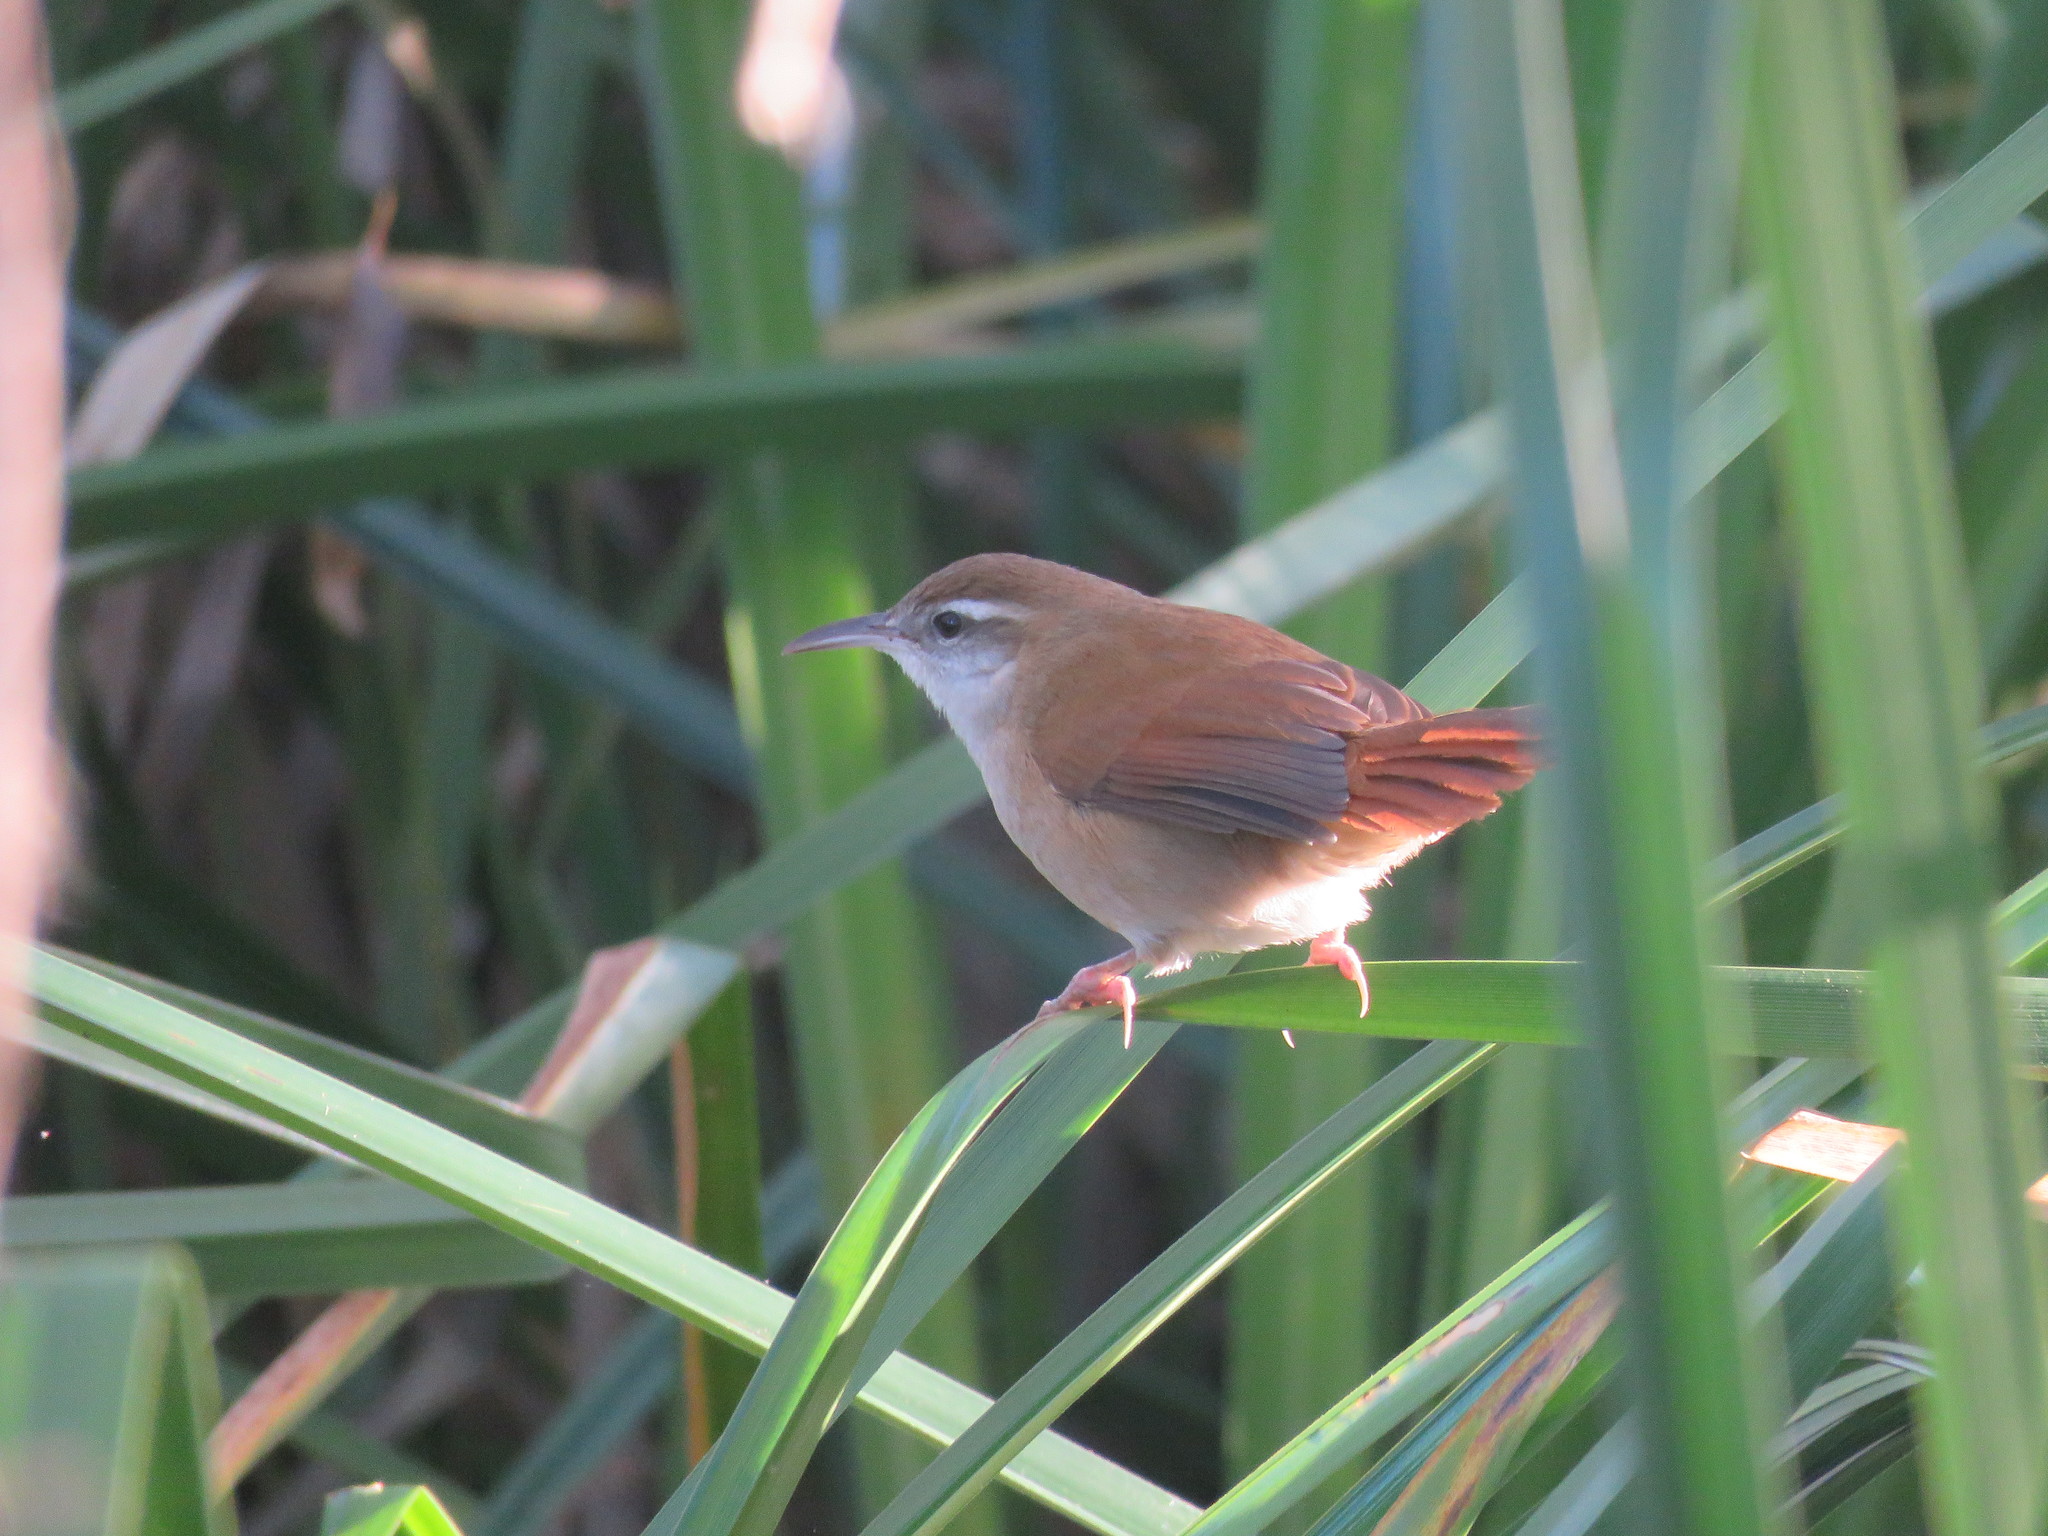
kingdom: Animalia
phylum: Chordata
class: Aves
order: Passeriformes
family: Furnariidae
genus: Limnornis
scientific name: Limnornis curvirostris
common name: Curve-billed reedhaunter
